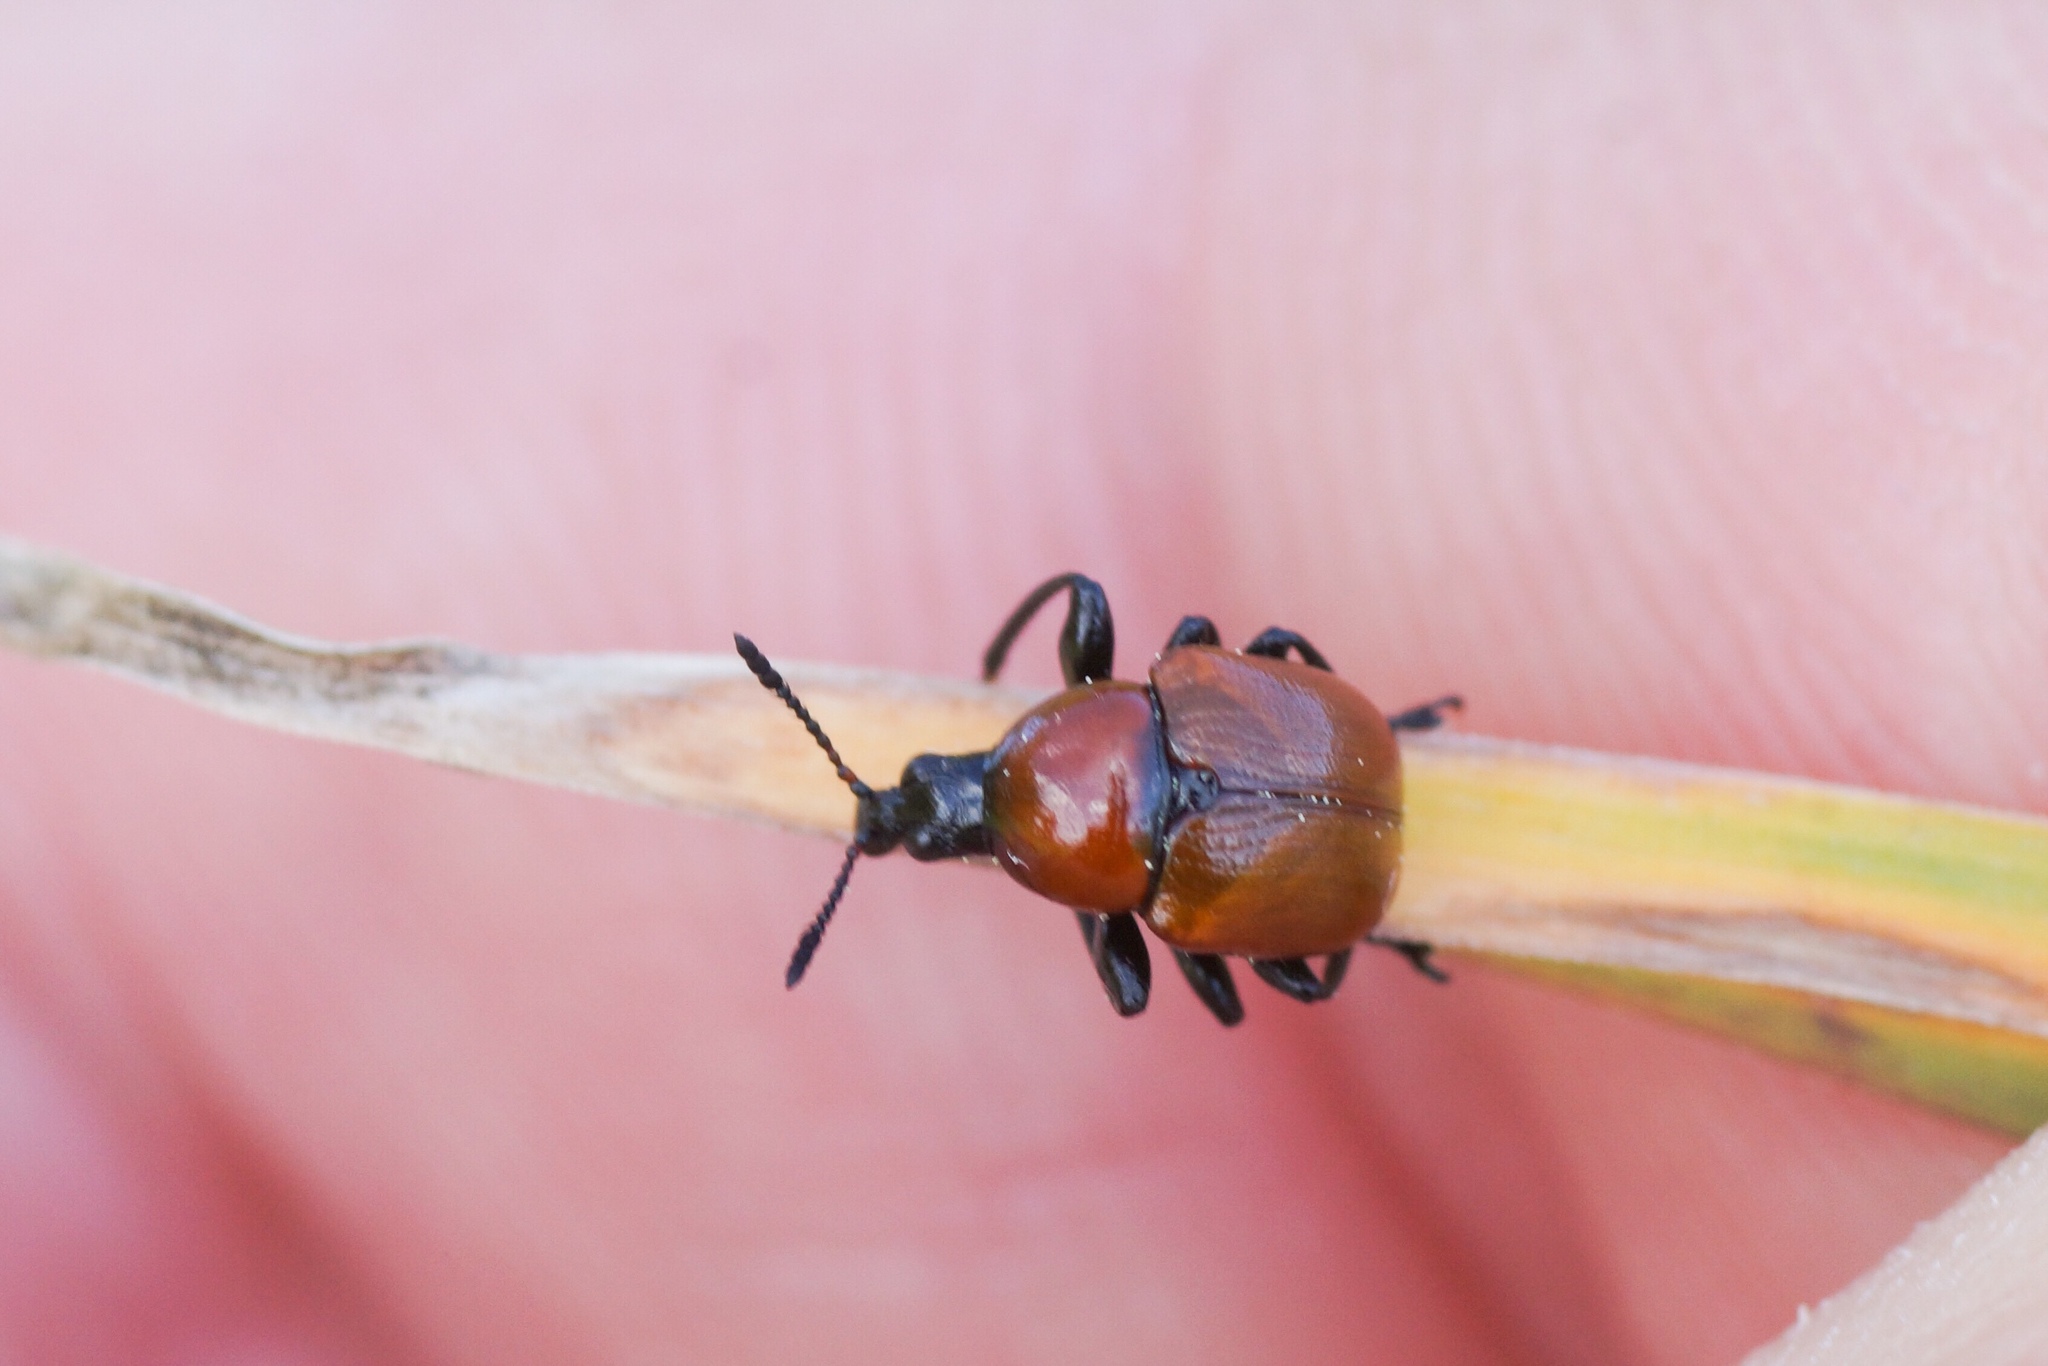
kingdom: Animalia
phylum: Arthropoda
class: Insecta
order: Coleoptera
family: Attelabidae
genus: Attelabus
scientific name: Attelabus nitens
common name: Oak leaf-roller
